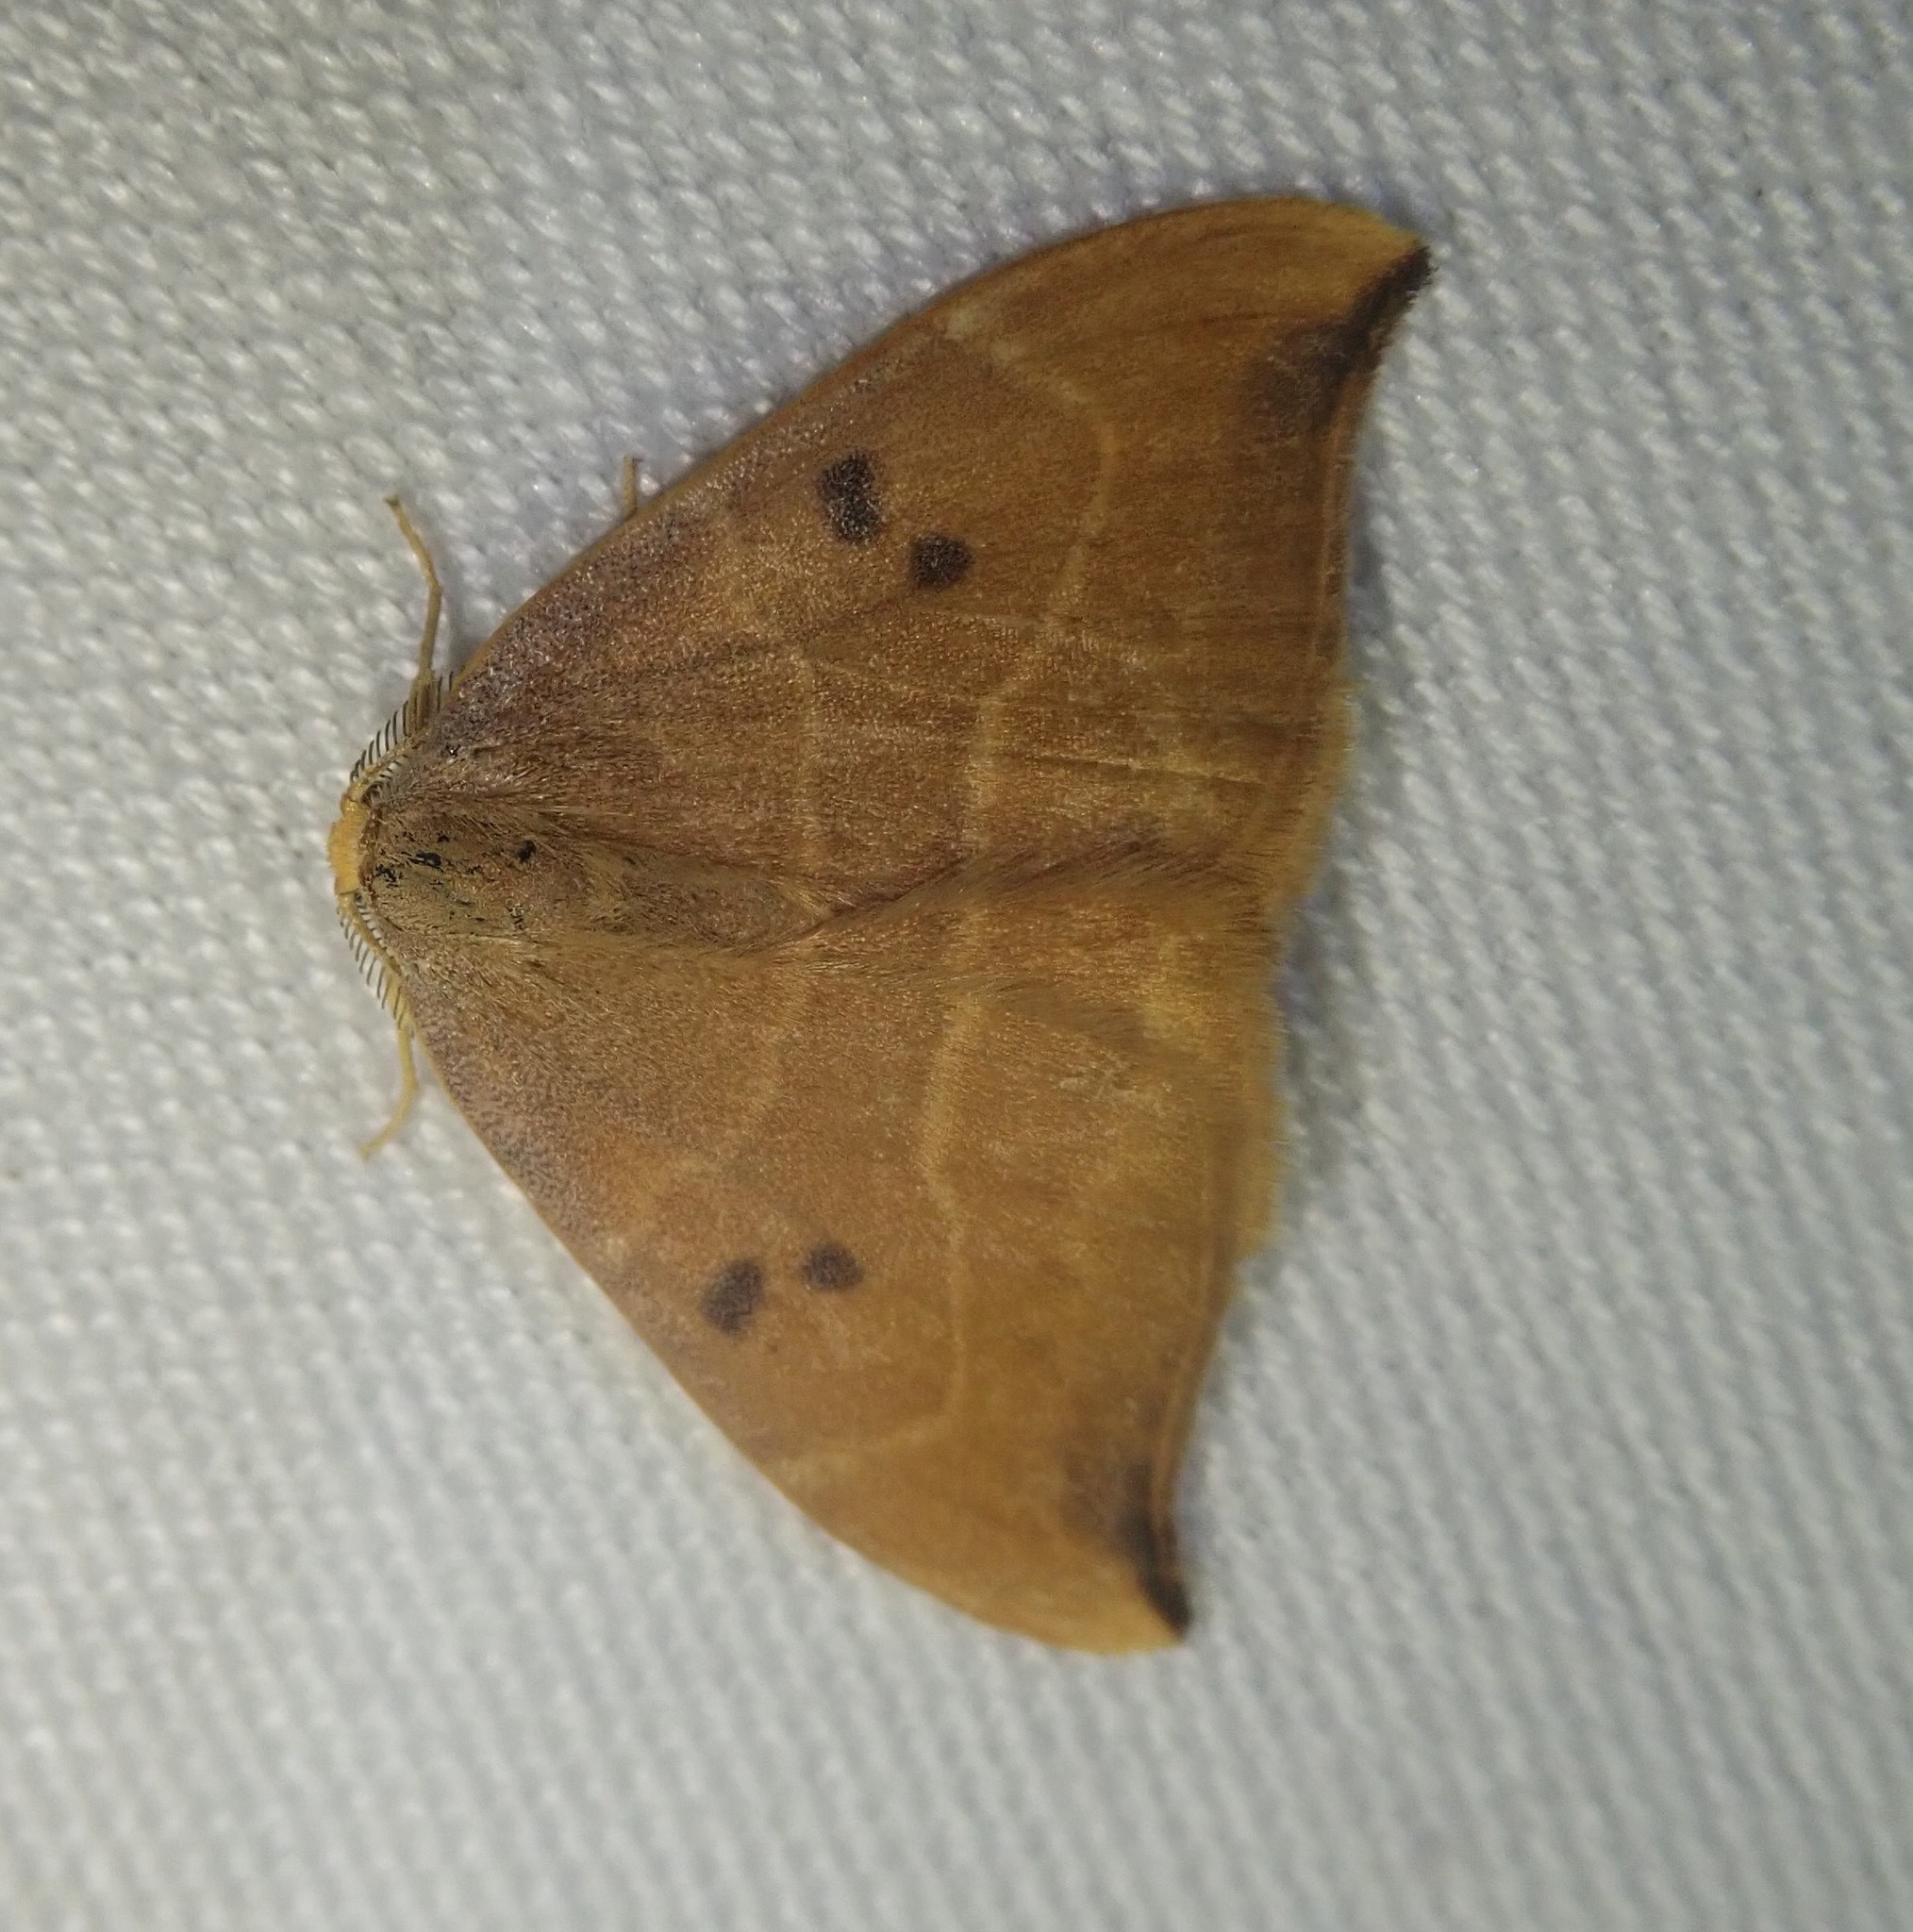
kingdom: Animalia
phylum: Arthropoda
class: Insecta
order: Lepidoptera
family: Drepanidae
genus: Watsonalla
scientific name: Watsonalla binaria
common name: Oak hook-tip
